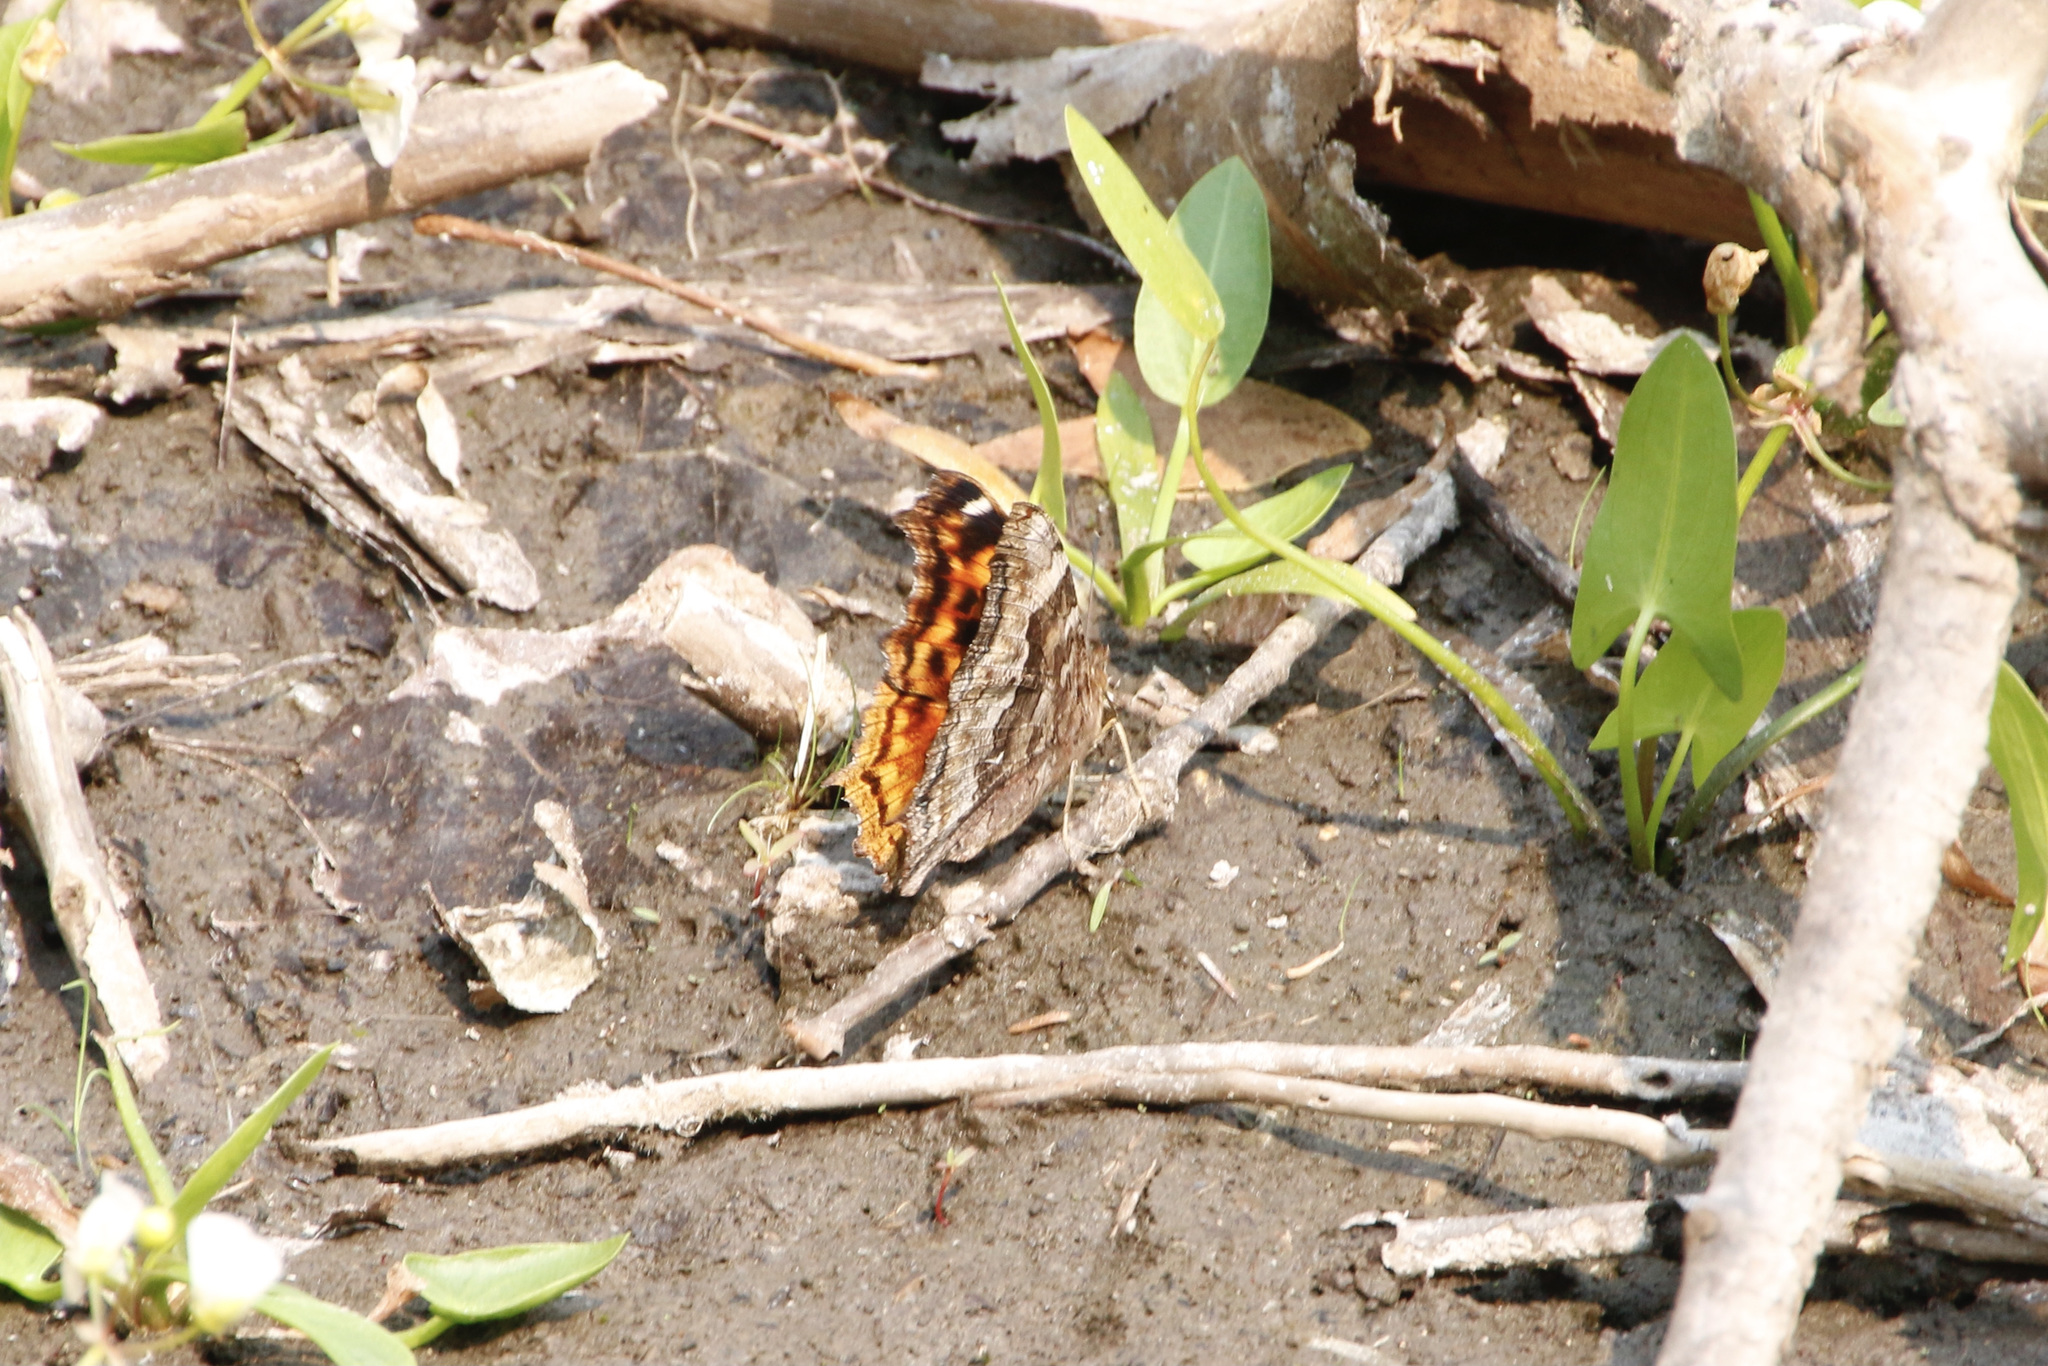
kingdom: Animalia
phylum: Arthropoda
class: Insecta
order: Lepidoptera
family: Nymphalidae
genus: Polygonia
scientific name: Polygonia vaualbum
